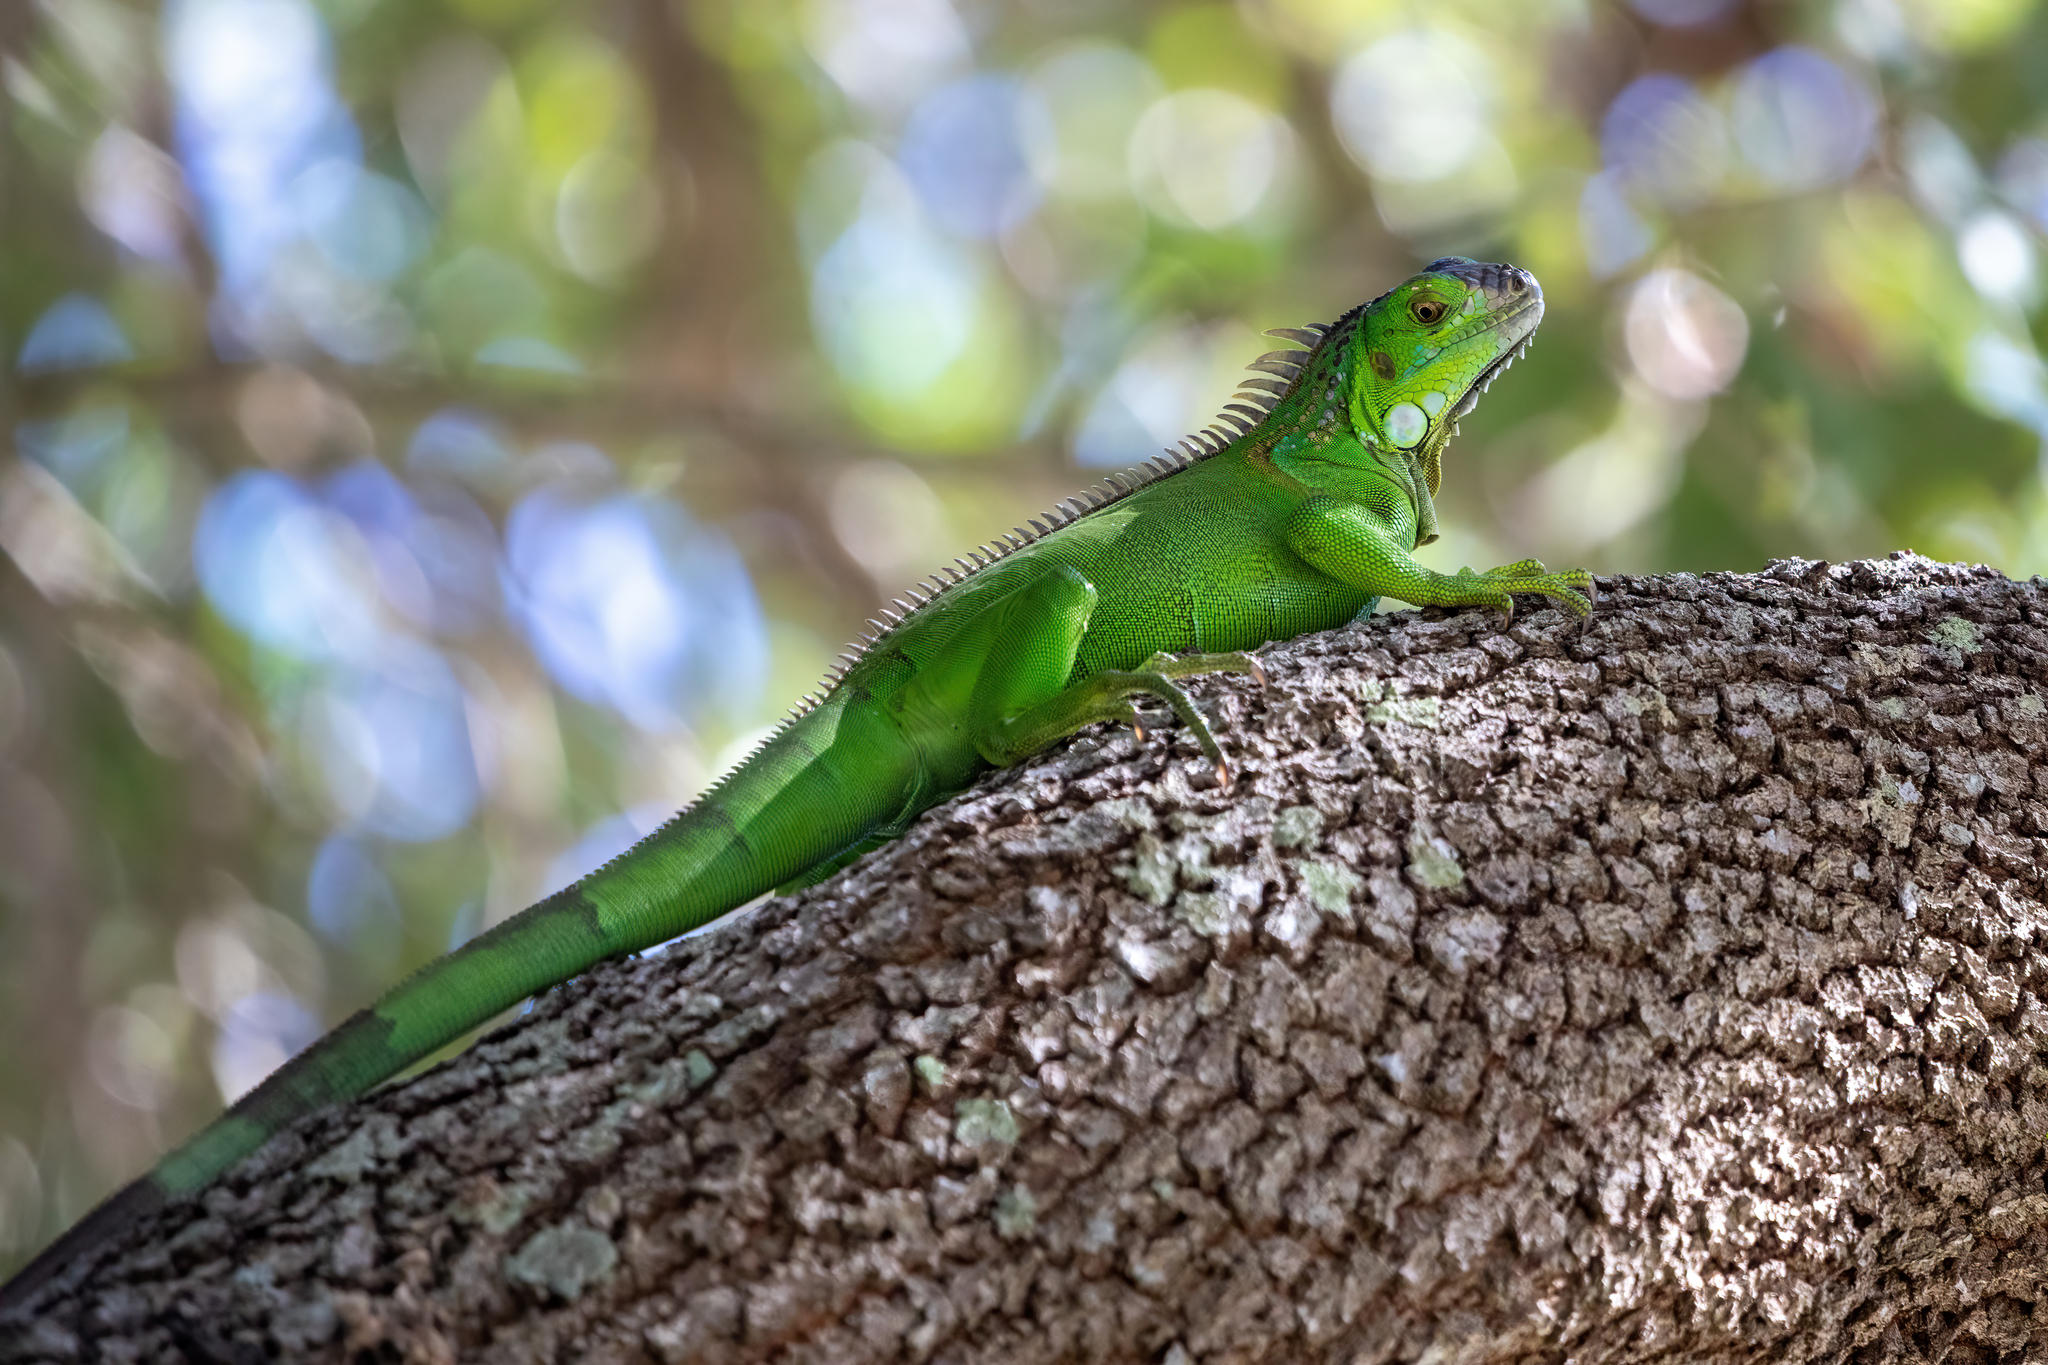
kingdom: Animalia
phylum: Chordata
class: Squamata
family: Iguanidae
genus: Iguana
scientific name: Iguana iguana
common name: Green iguana
